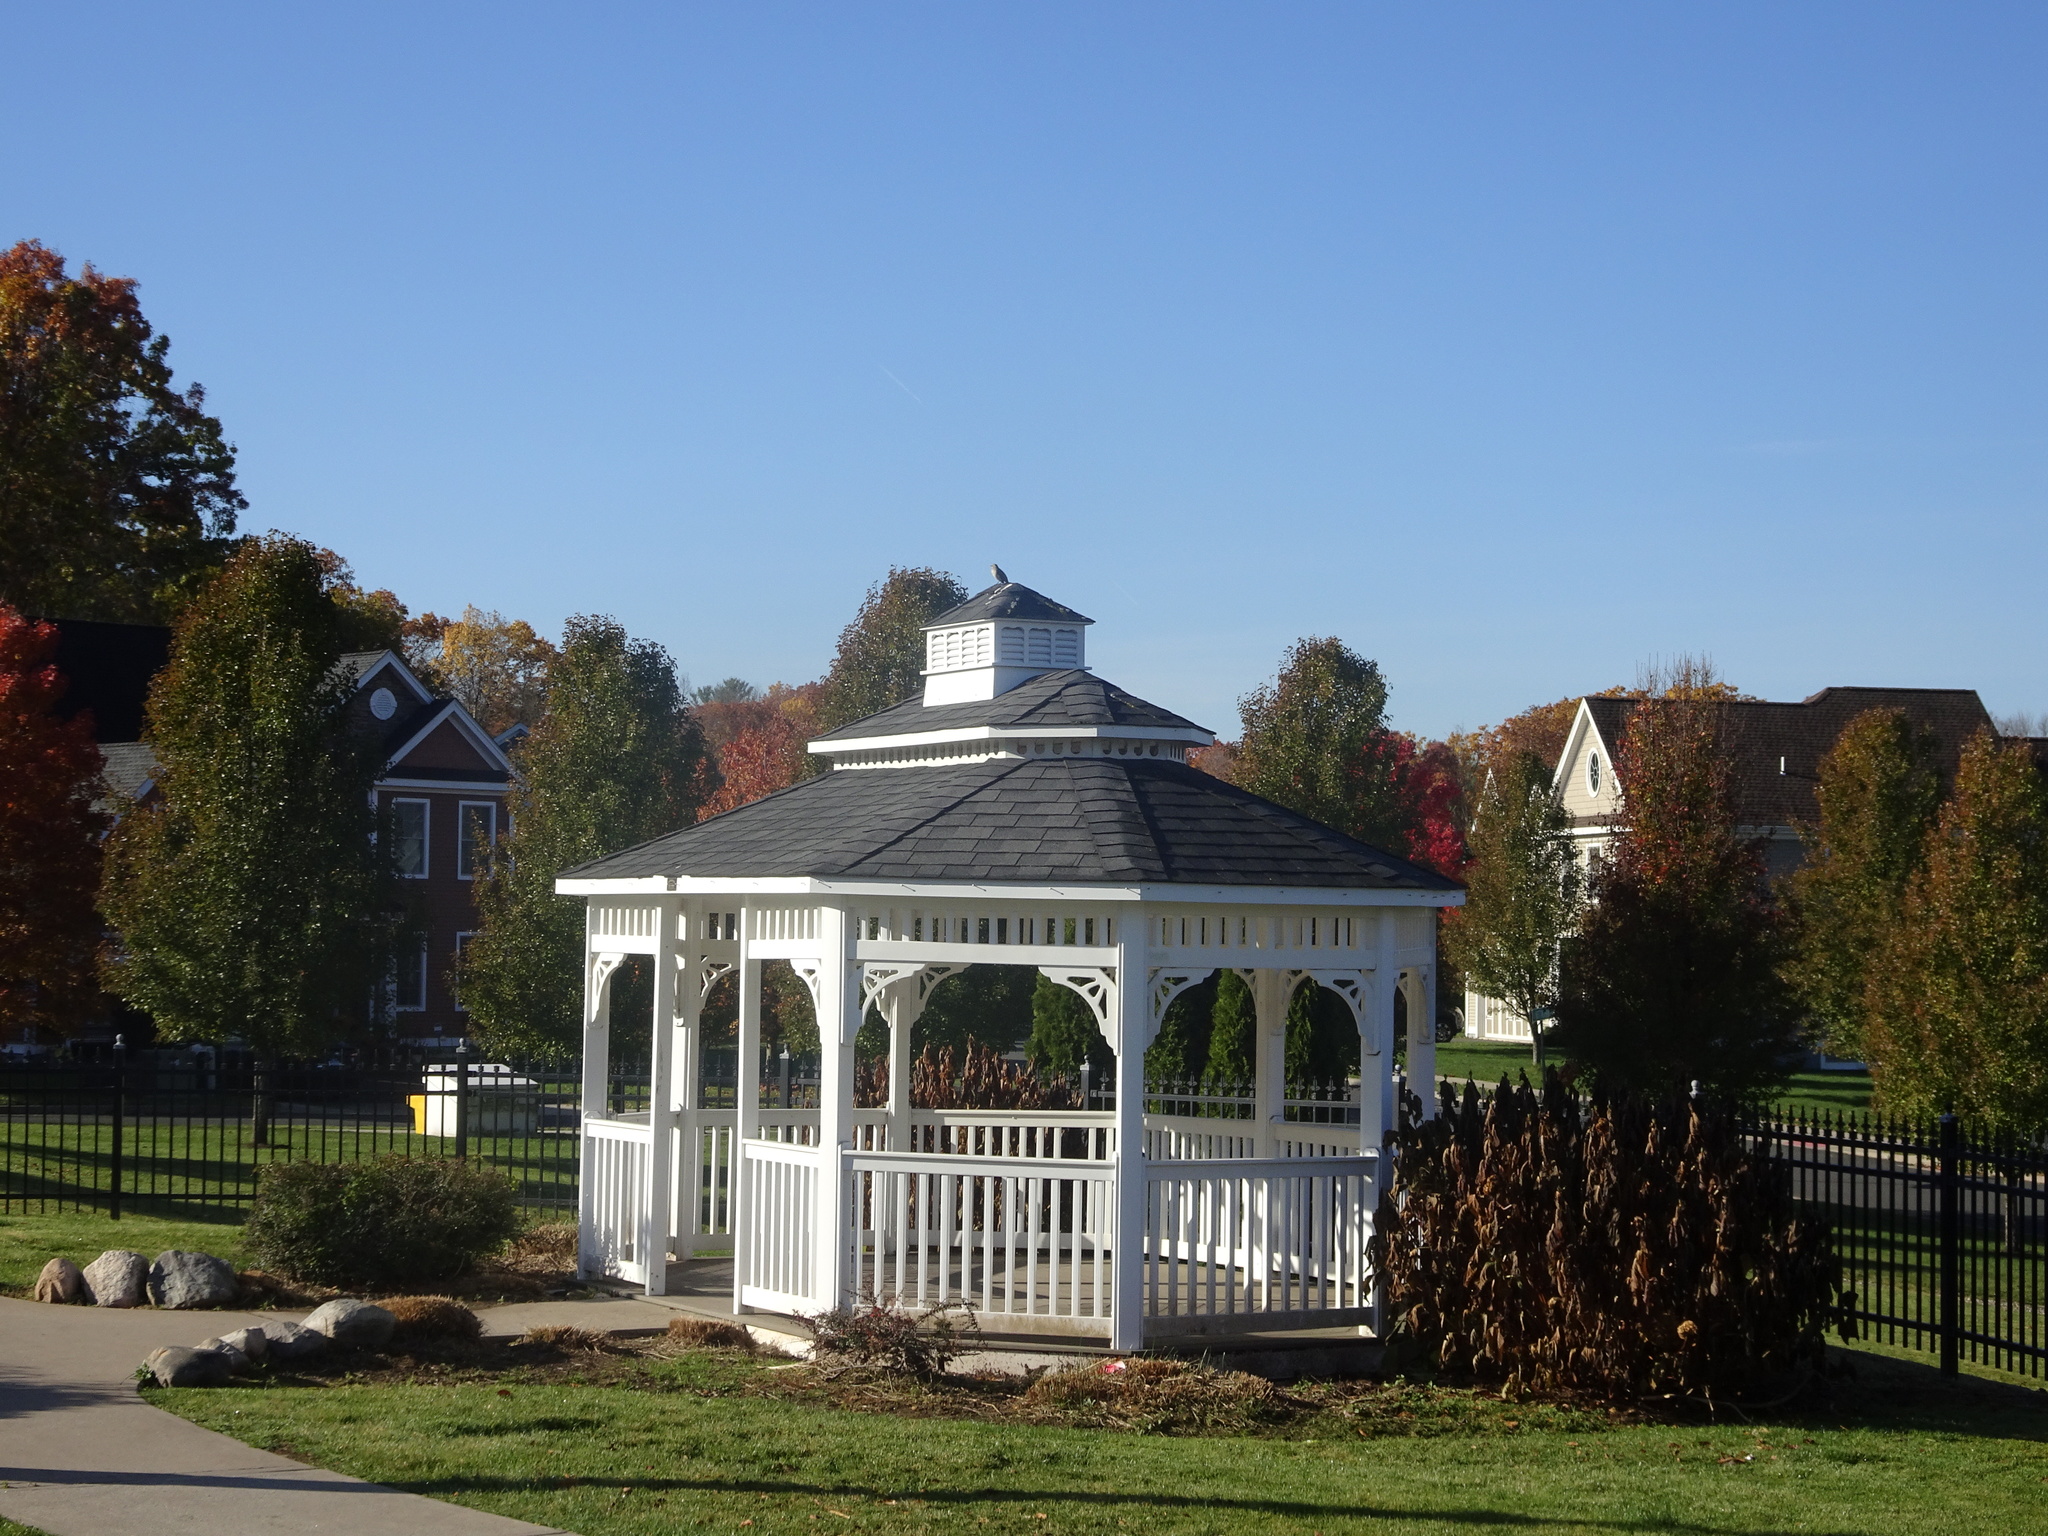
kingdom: Animalia
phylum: Chordata
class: Aves
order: Passeriformes
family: Mimidae
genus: Mimus
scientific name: Mimus polyglottos
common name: Northern mockingbird
